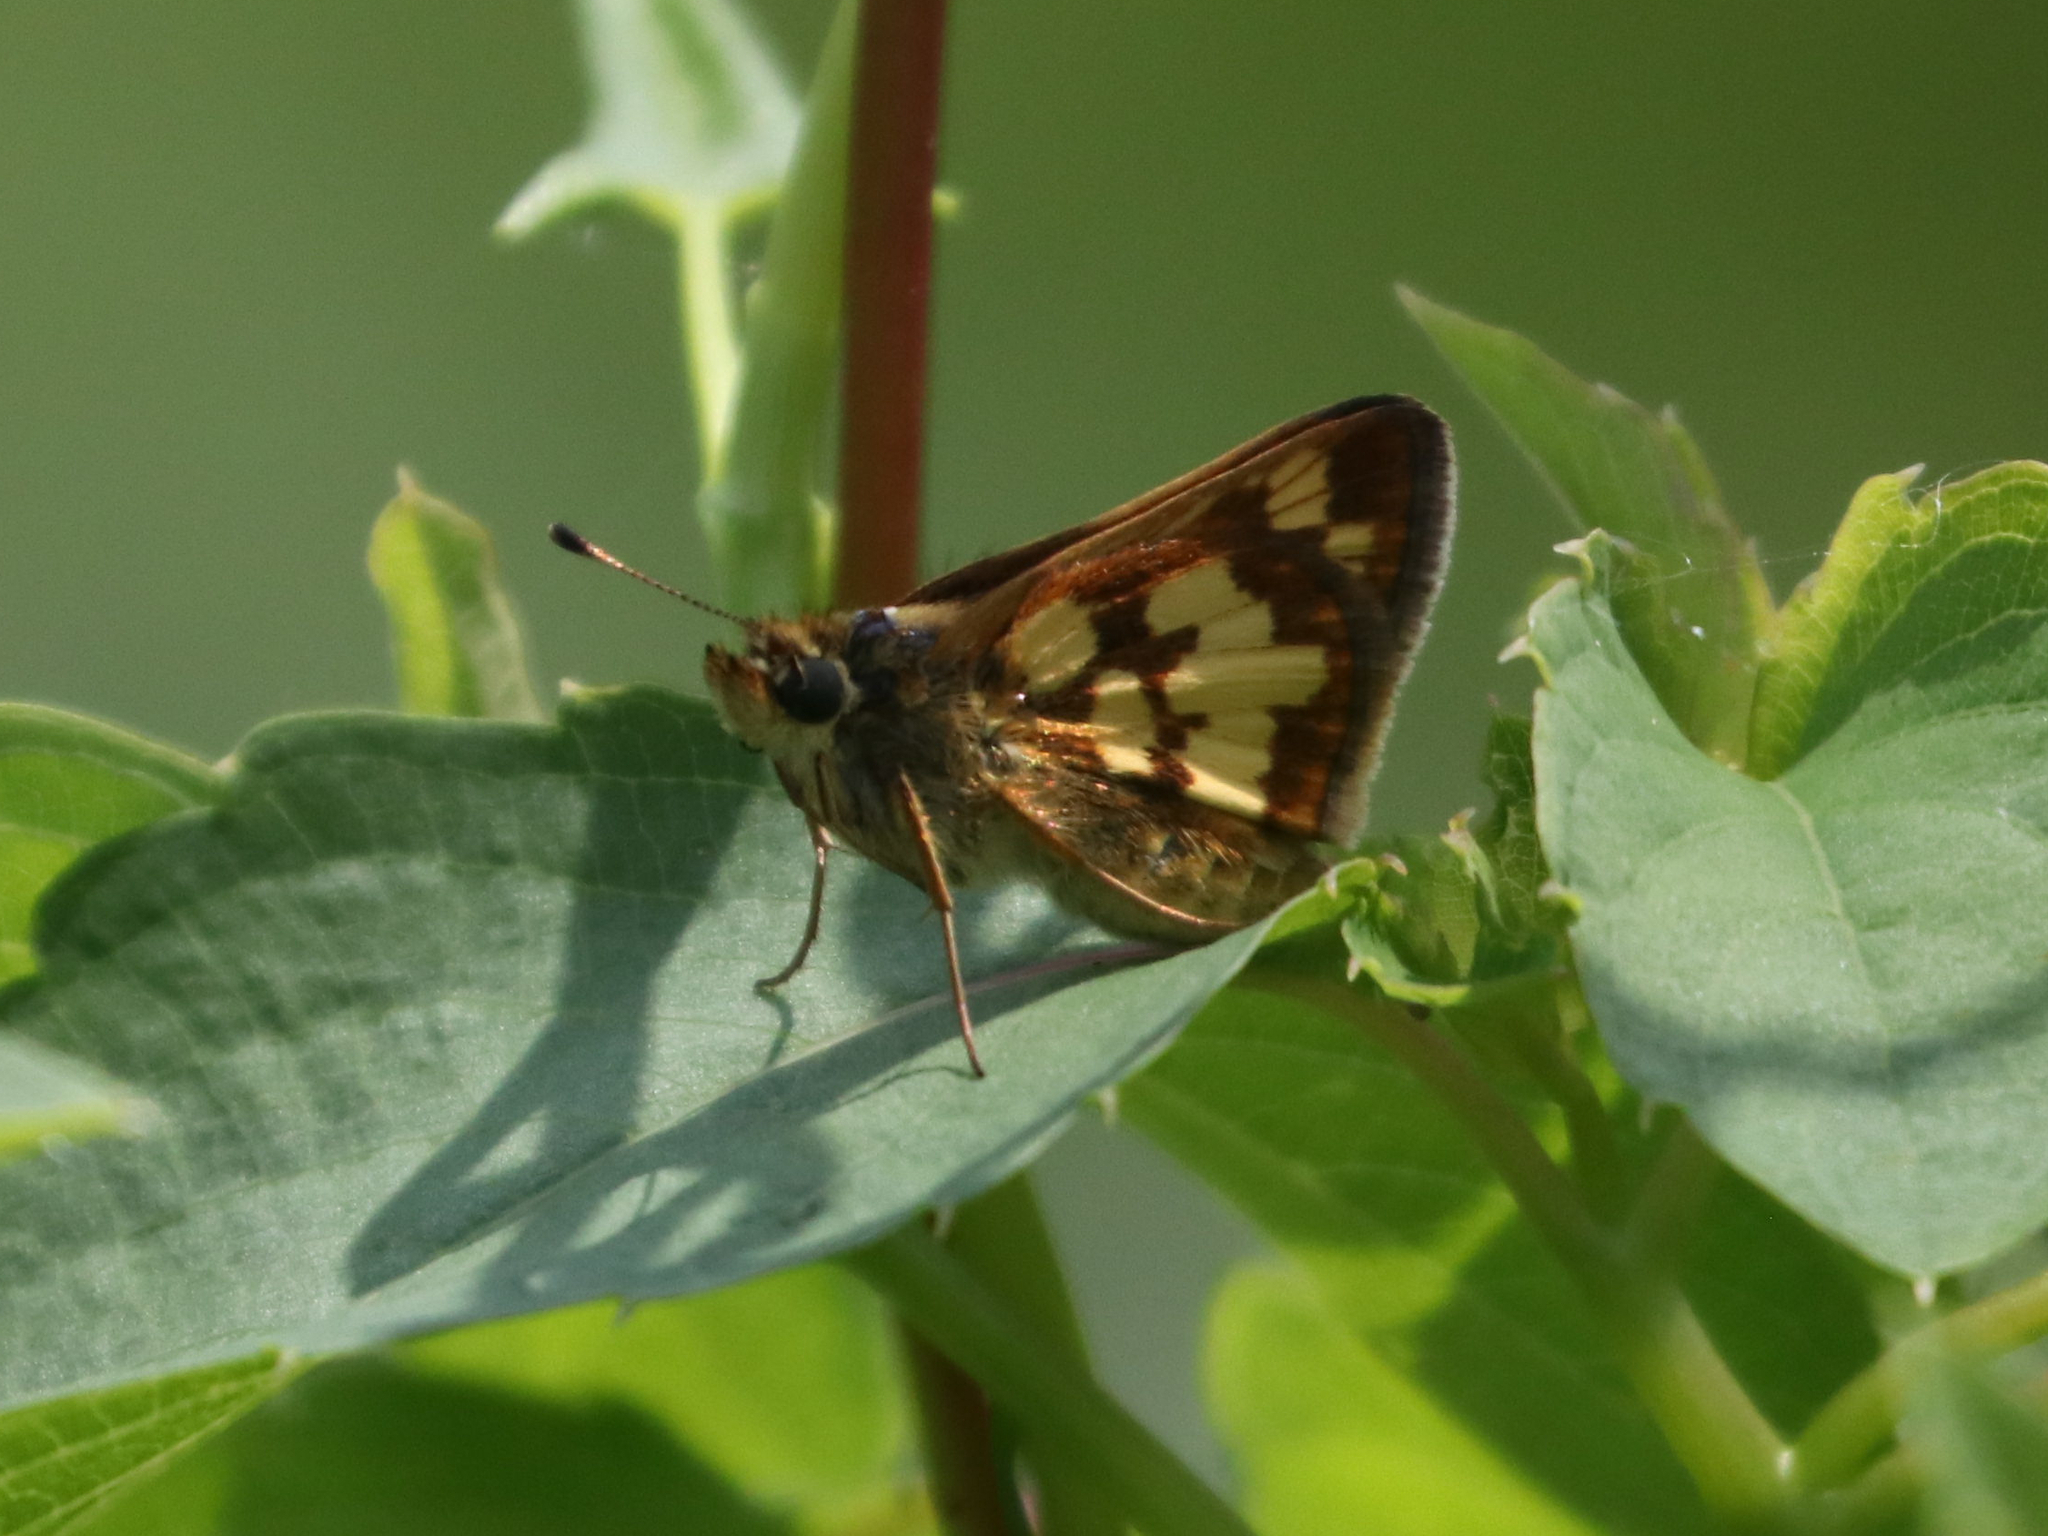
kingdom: Animalia
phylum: Arthropoda
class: Insecta
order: Lepidoptera
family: Hesperiidae
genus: Polites
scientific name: Polites coras
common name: Peck's skipper
